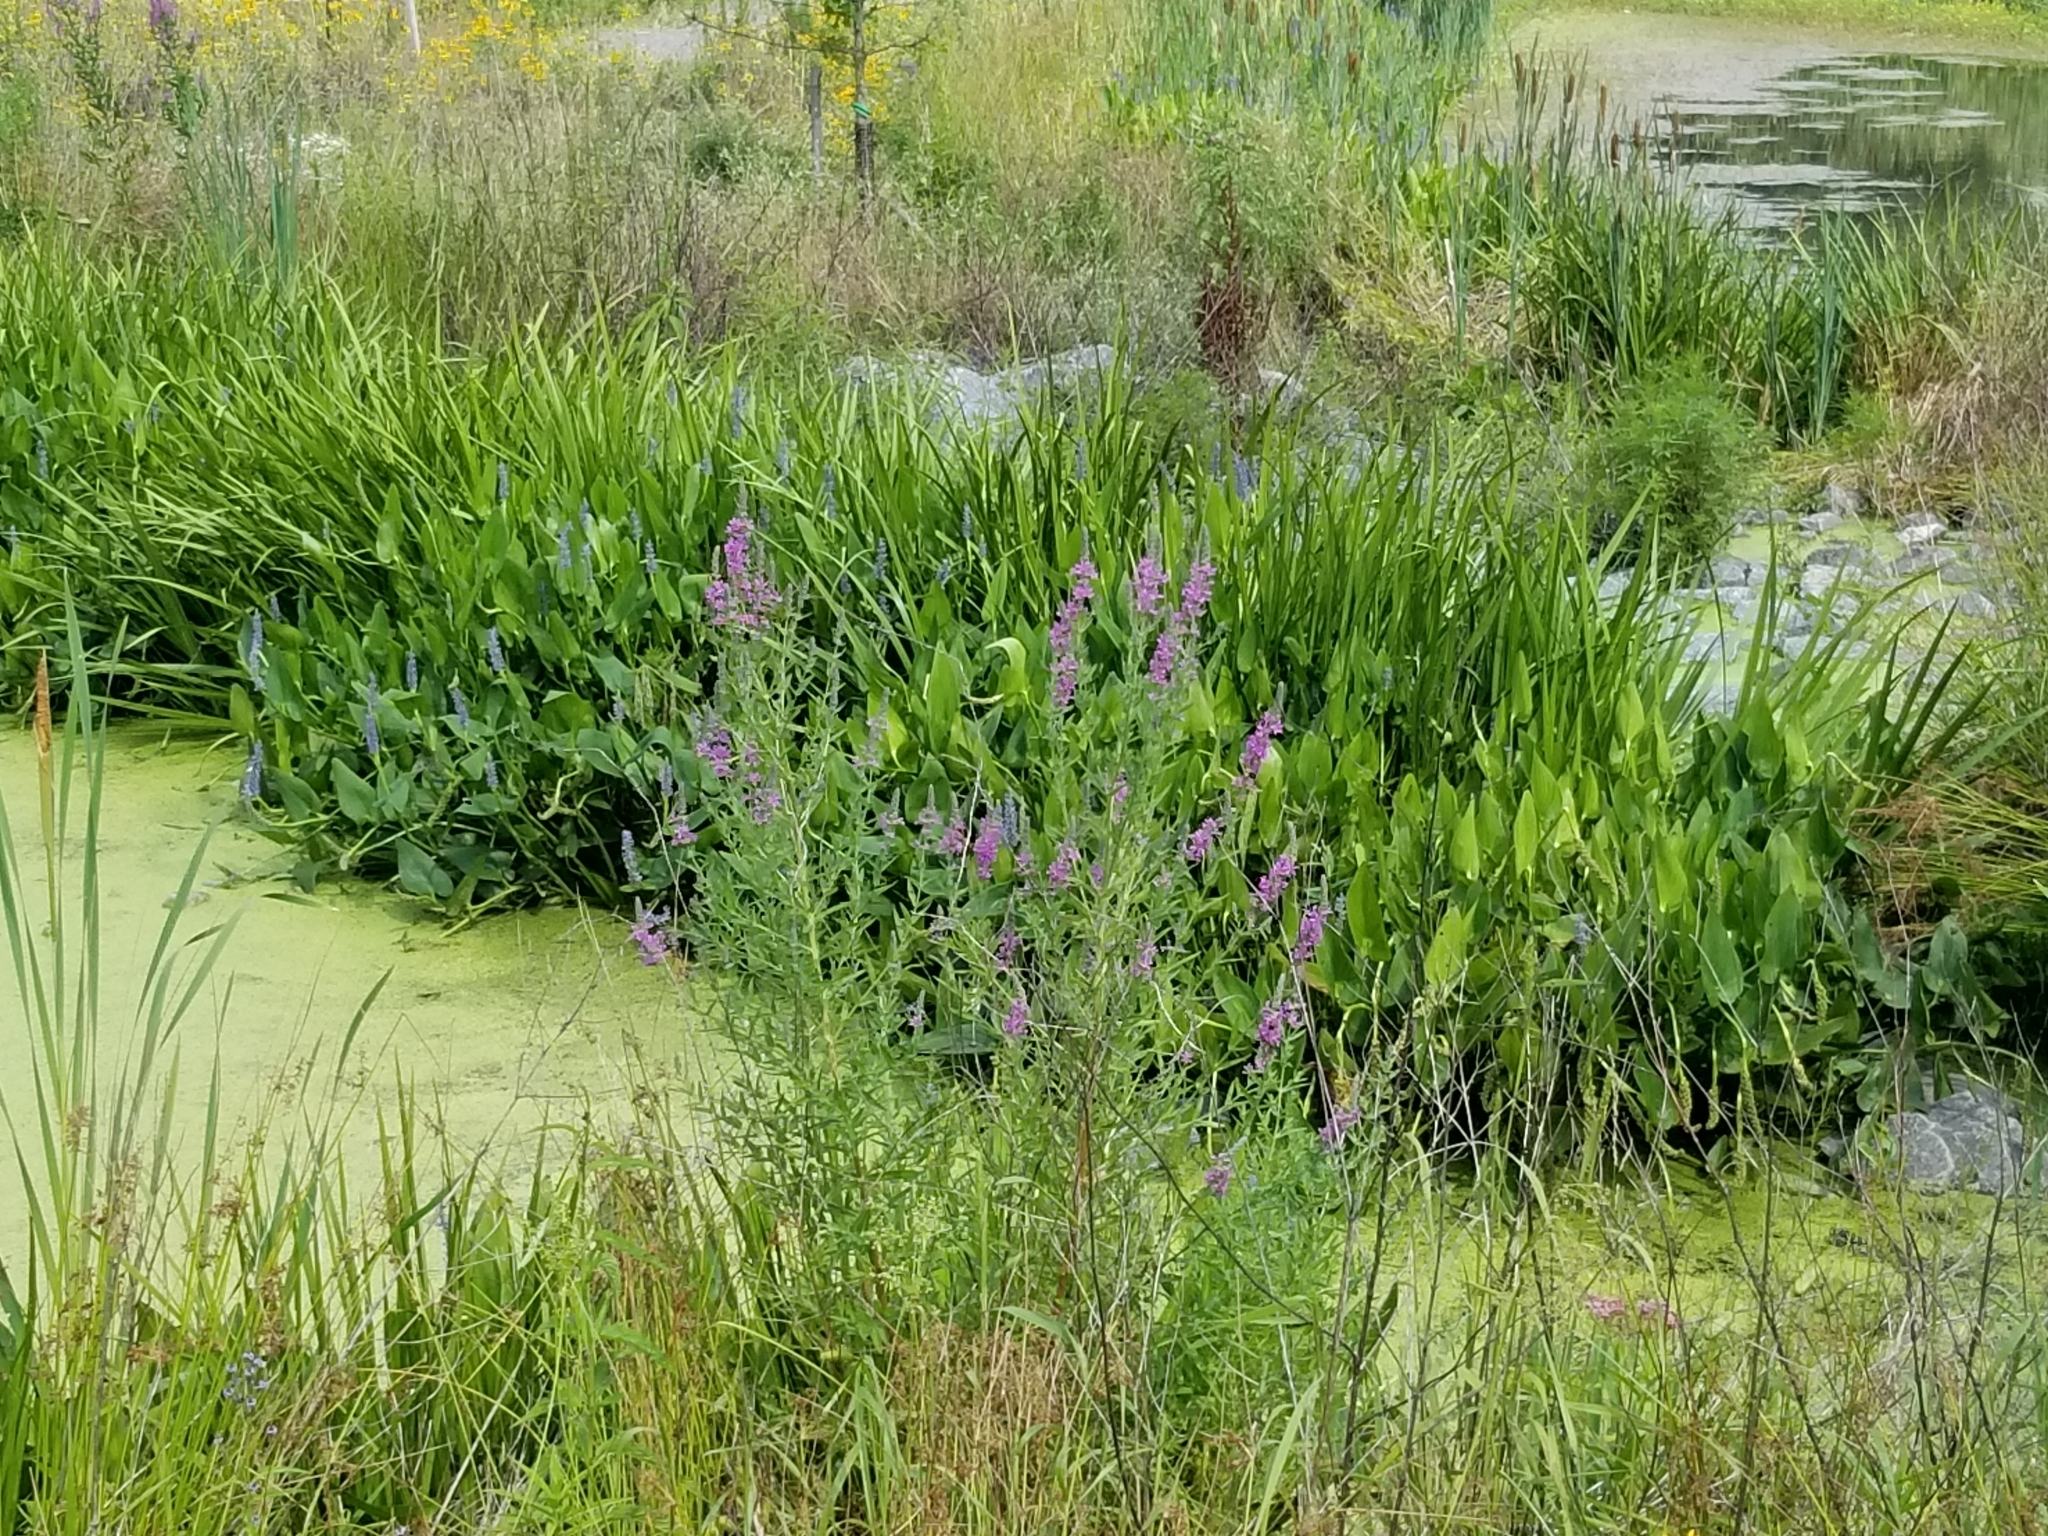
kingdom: Plantae
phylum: Tracheophyta
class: Magnoliopsida
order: Myrtales
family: Lythraceae
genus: Lythrum
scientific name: Lythrum salicaria
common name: Purple loosestrife
